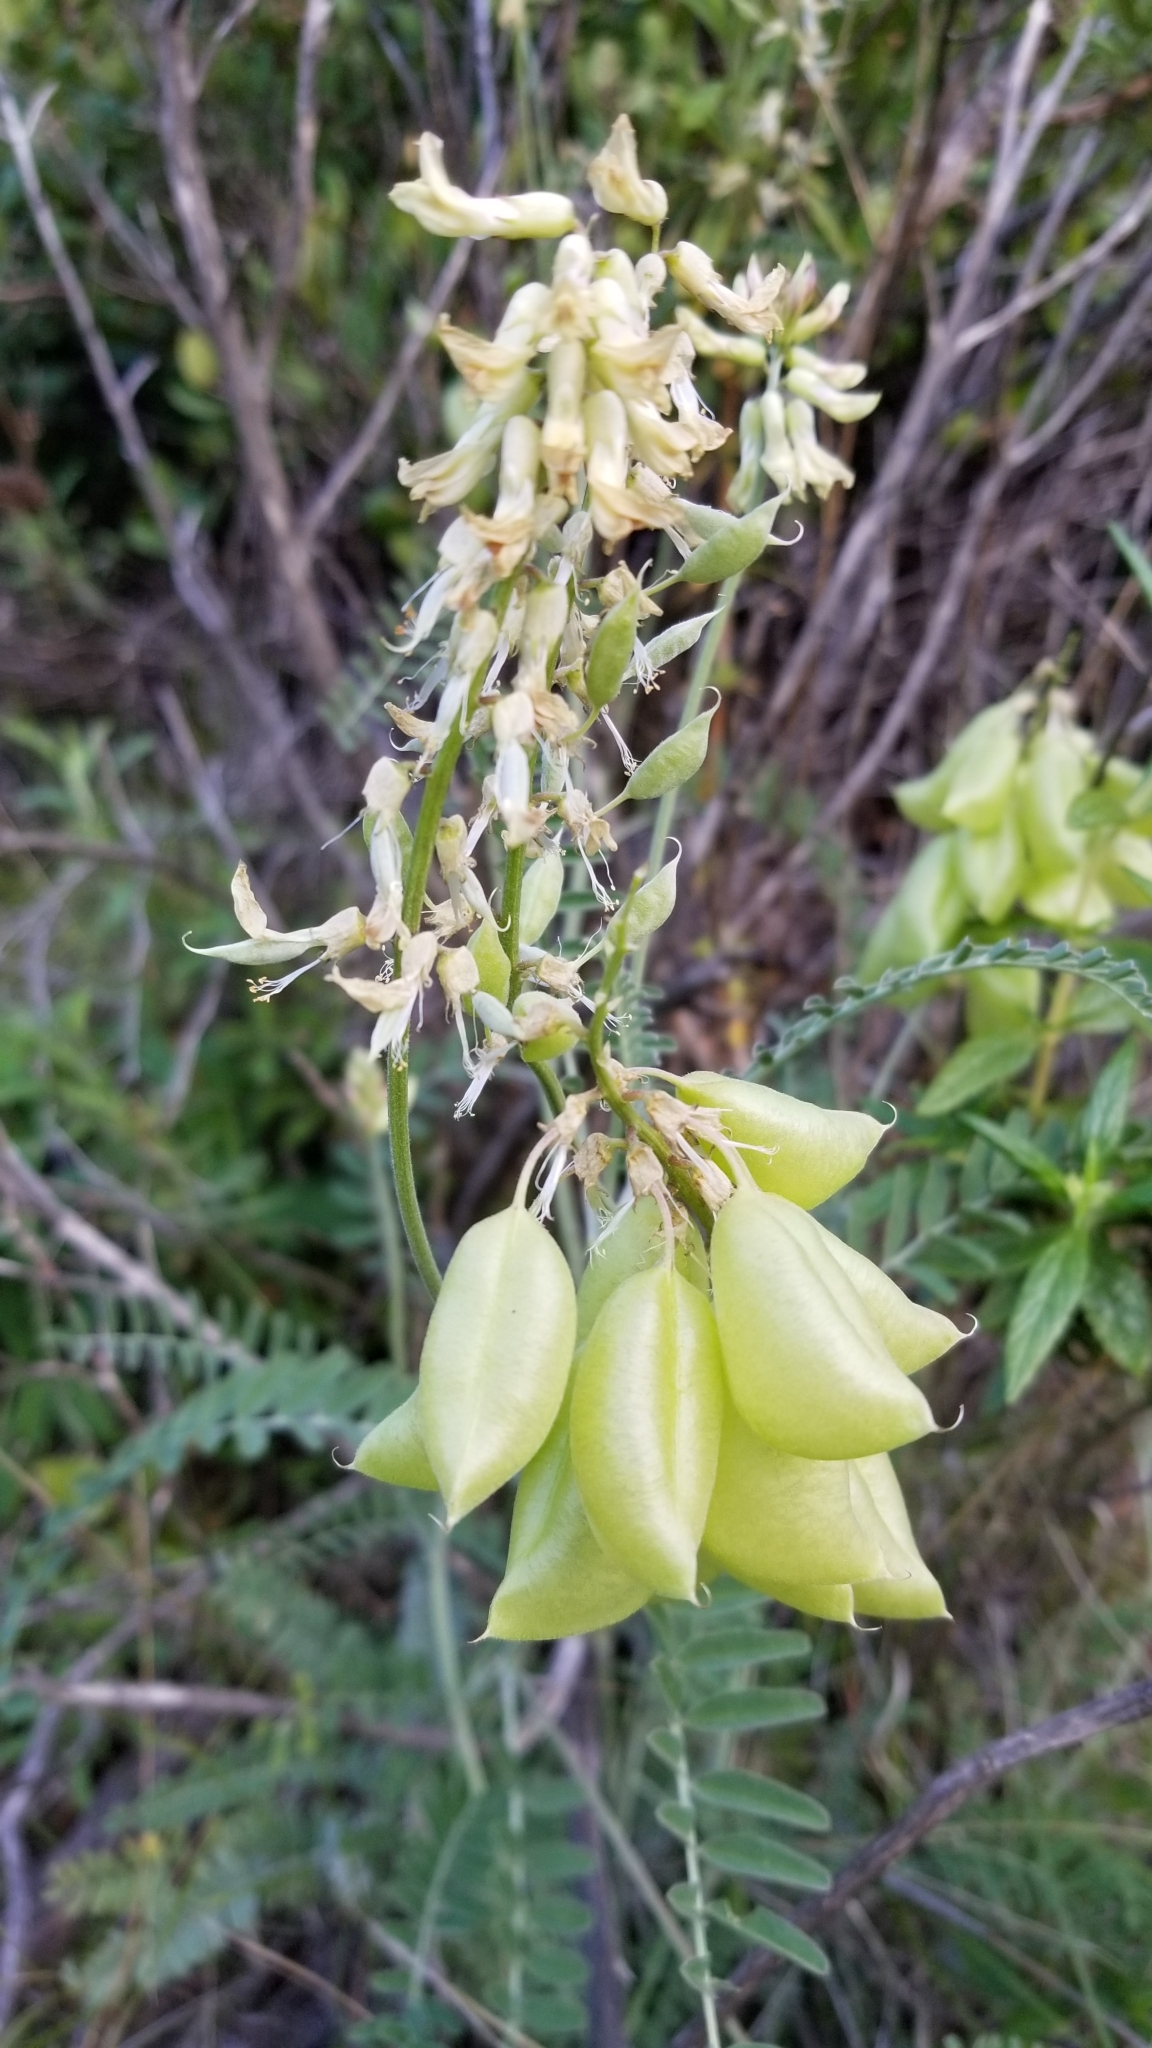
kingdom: Plantae
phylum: Tracheophyta
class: Magnoliopsida
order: Fabales
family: Fabaceae
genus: Astragalus
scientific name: Astragalus trichopodus
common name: Santa barbara milk-vetch
